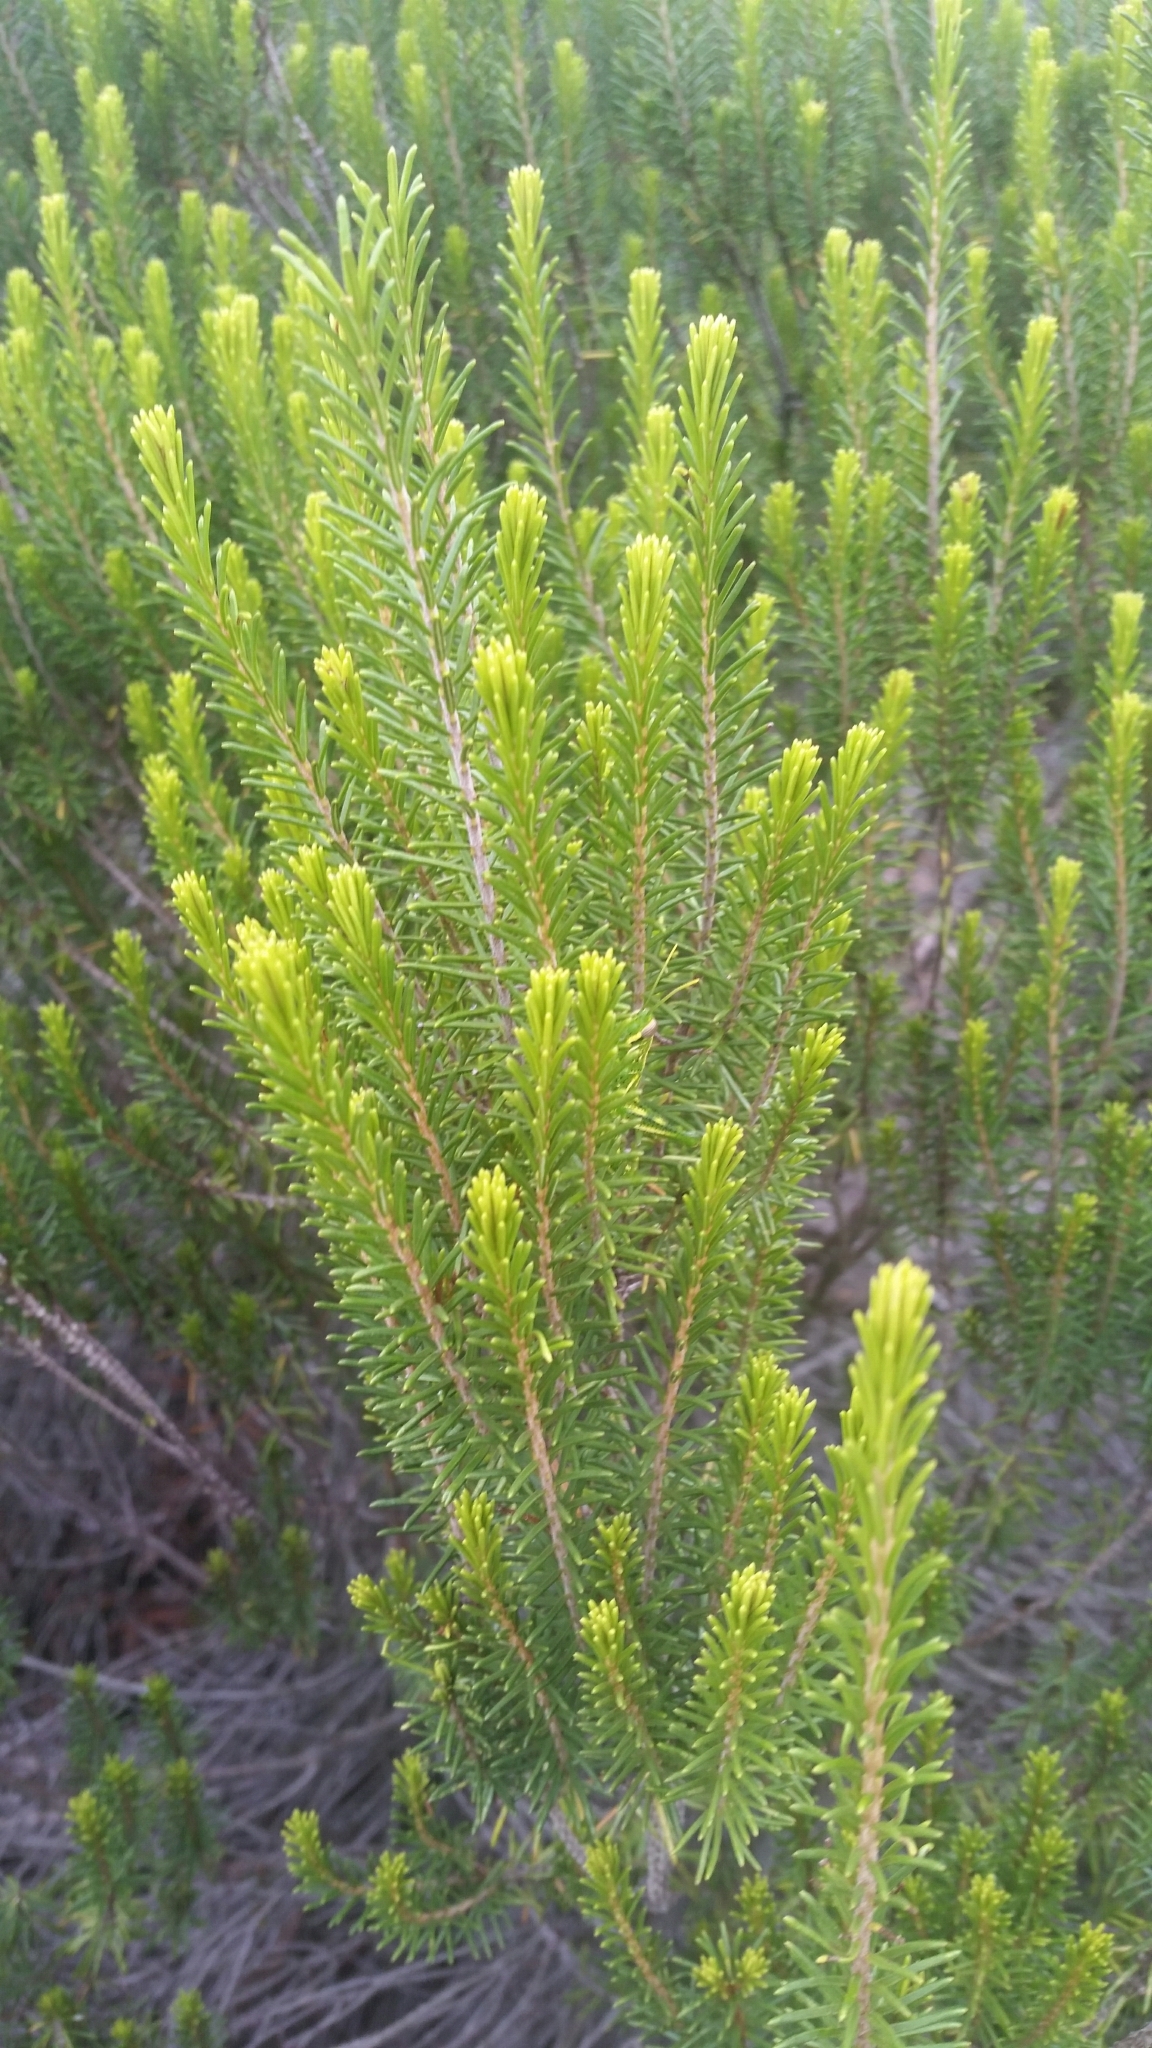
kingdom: Plantae
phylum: Tracheophyta
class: Magnoliopsida
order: Ericales
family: Ericaceae
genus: Ceratiola
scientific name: Ceratiola ericoides
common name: Sandhill-rosemary
